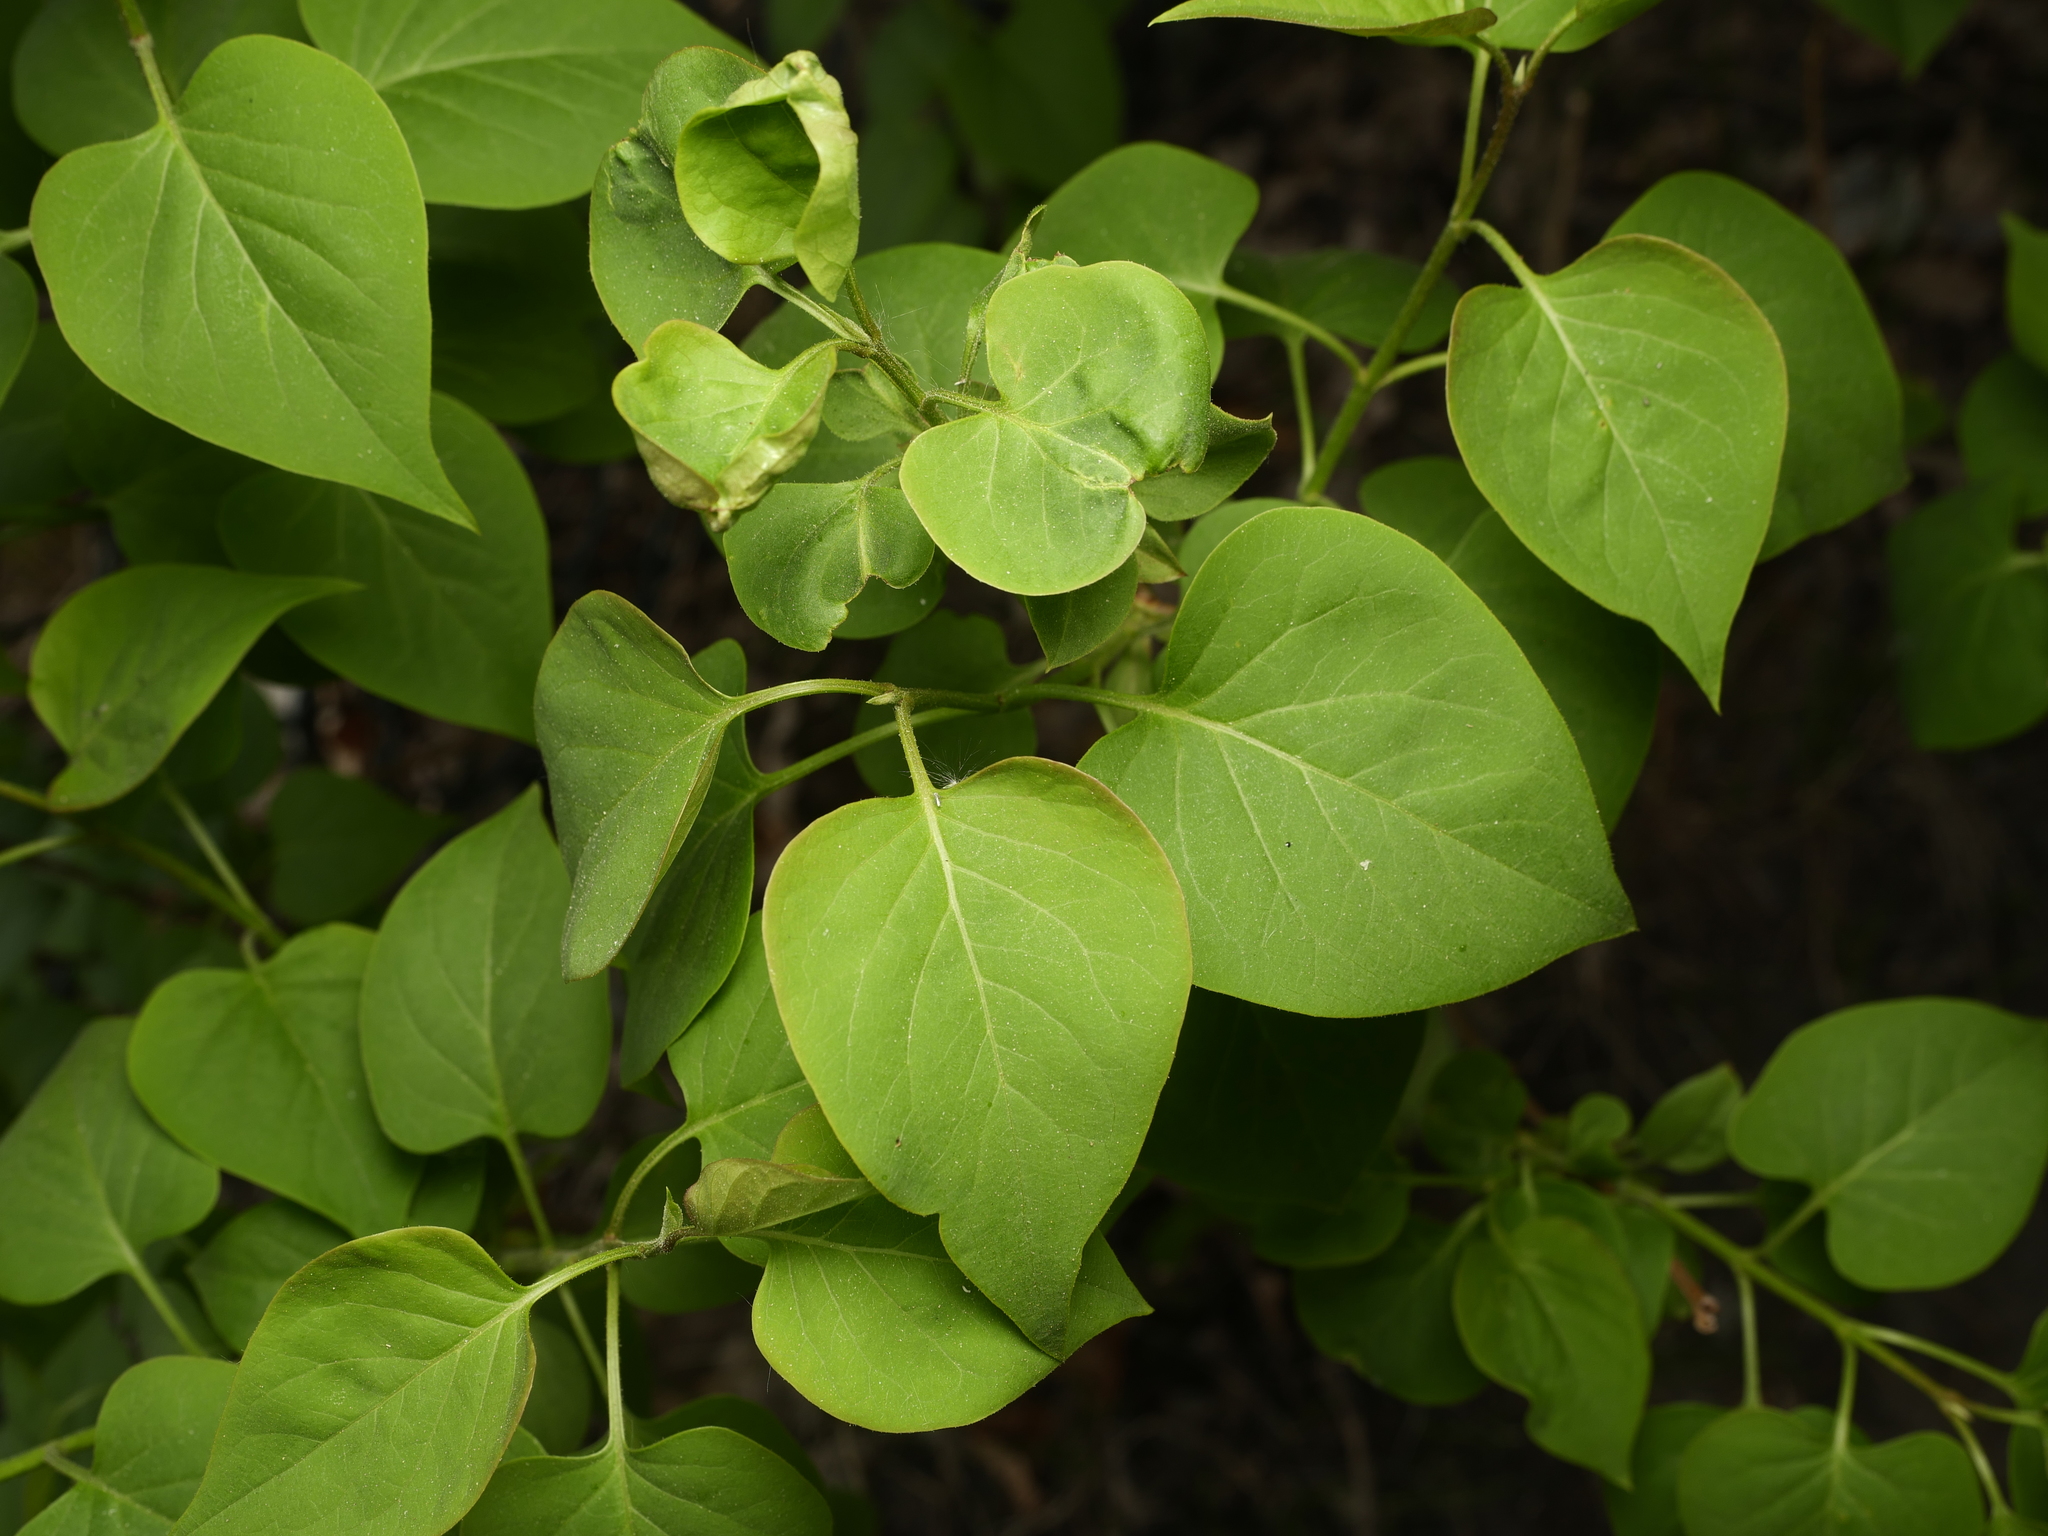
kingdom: Plantae
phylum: Tracheophyta
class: Magnoliopsida
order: Lamiales
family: Oleaceae
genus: Syringa
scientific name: Syringa vulgaris
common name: Common lilac
